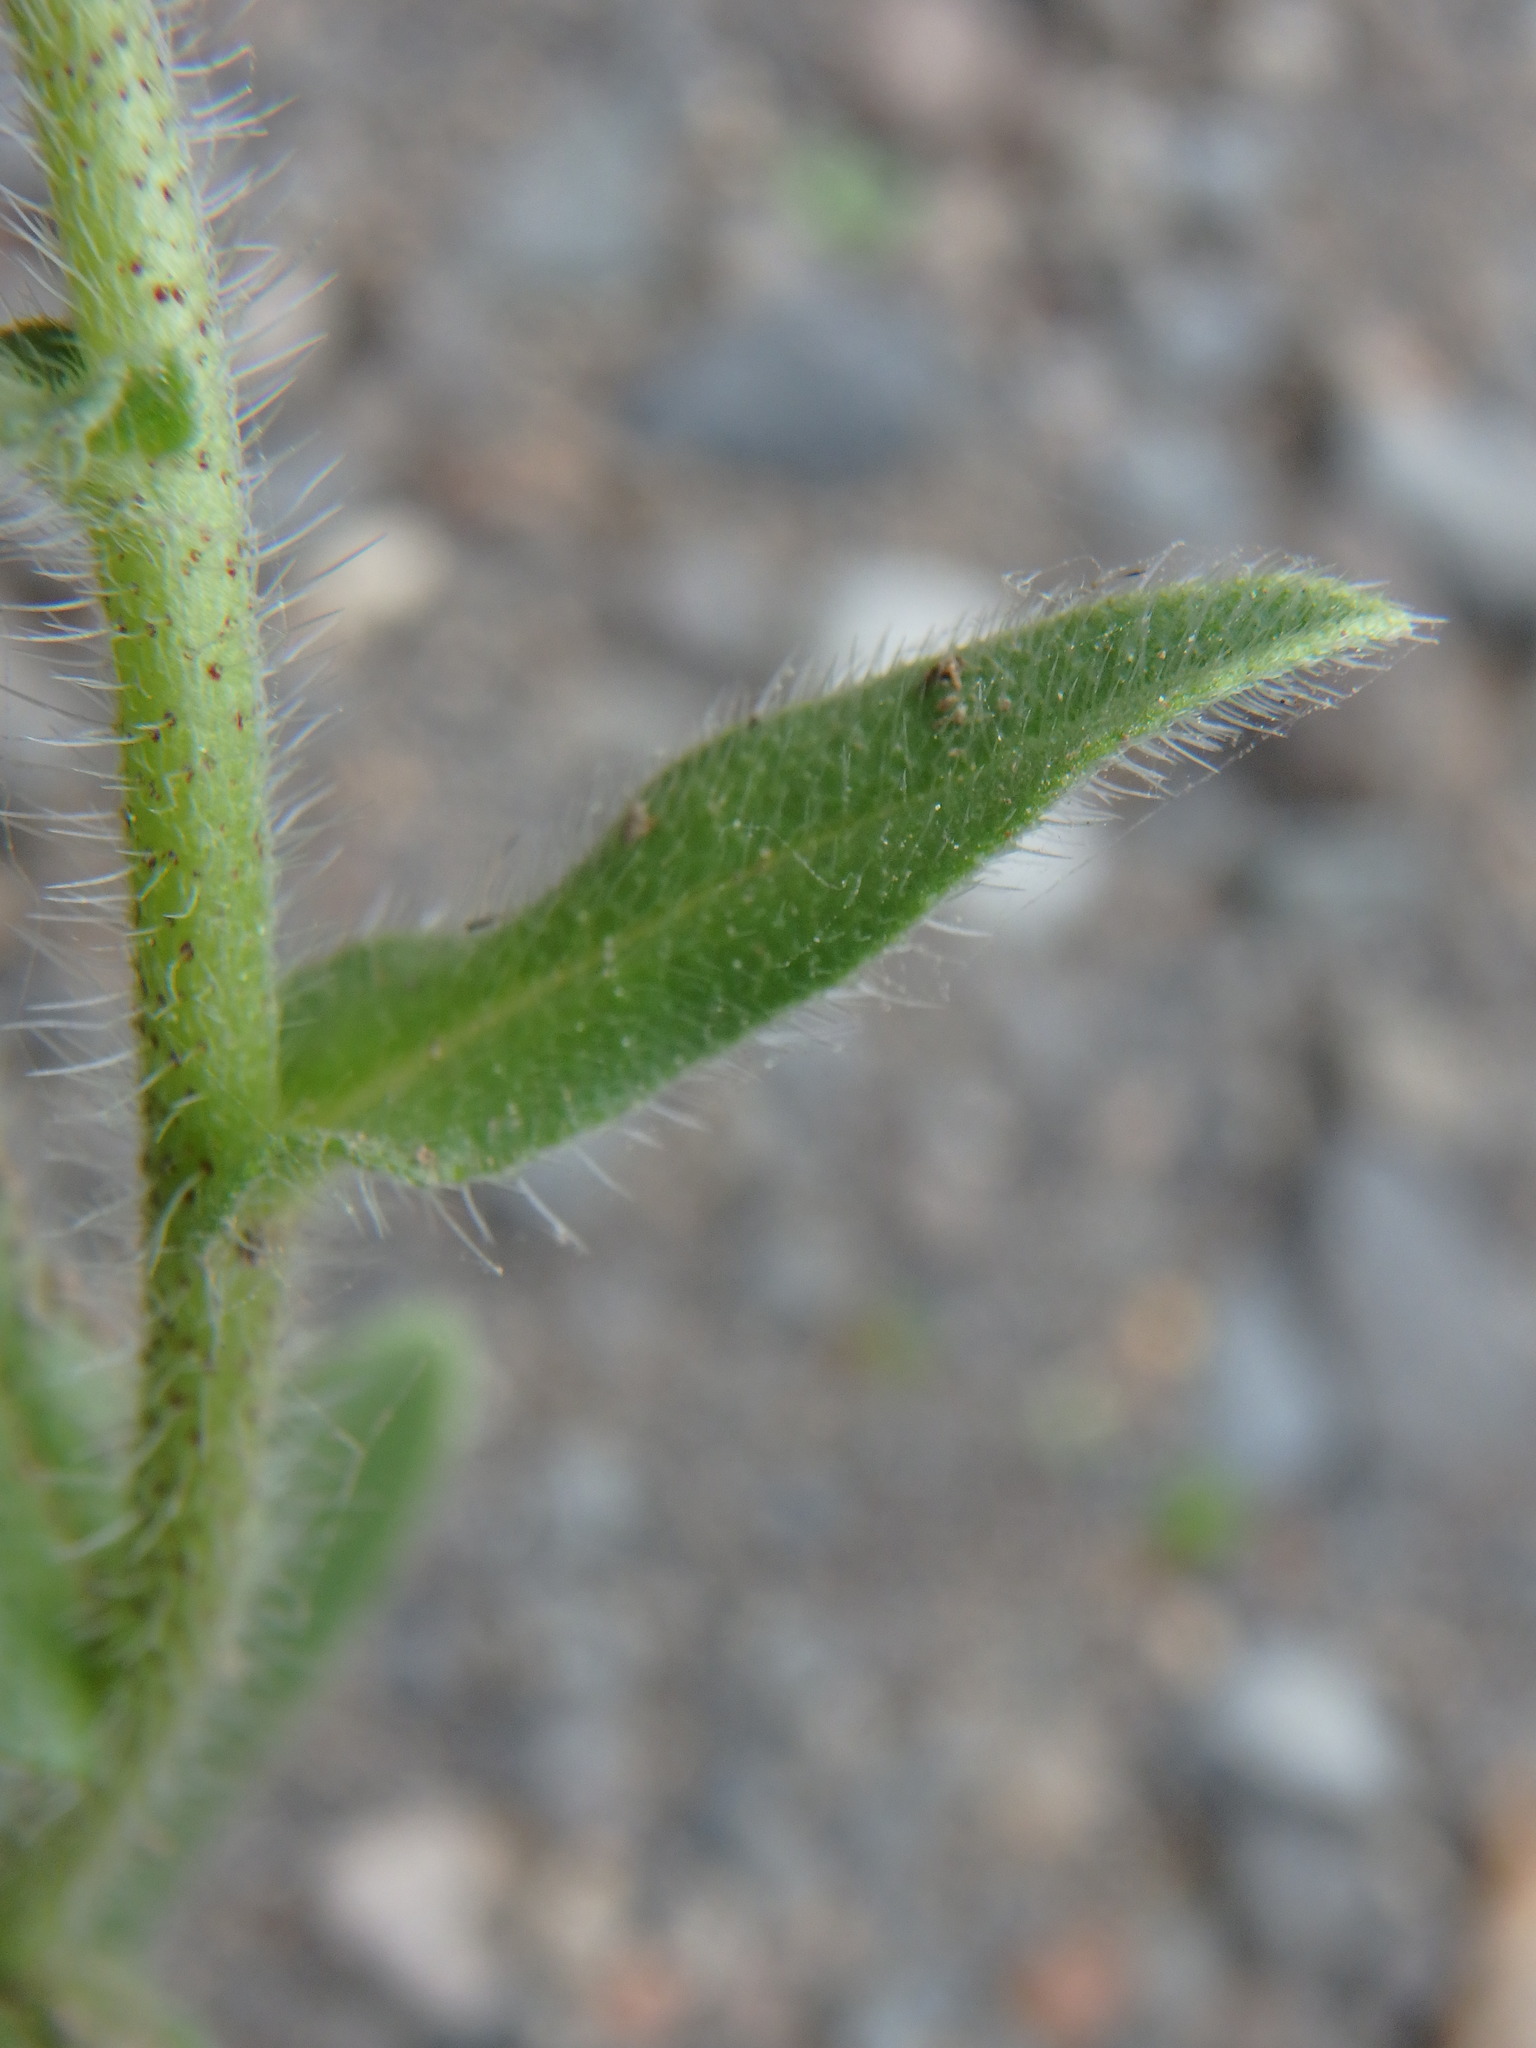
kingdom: Plantae
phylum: Tracheophyta
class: Magnoliopsida
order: Boraginales
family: Boraginaceae
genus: Echium
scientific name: Echium plantagineum
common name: Purple viper's-bugloss
